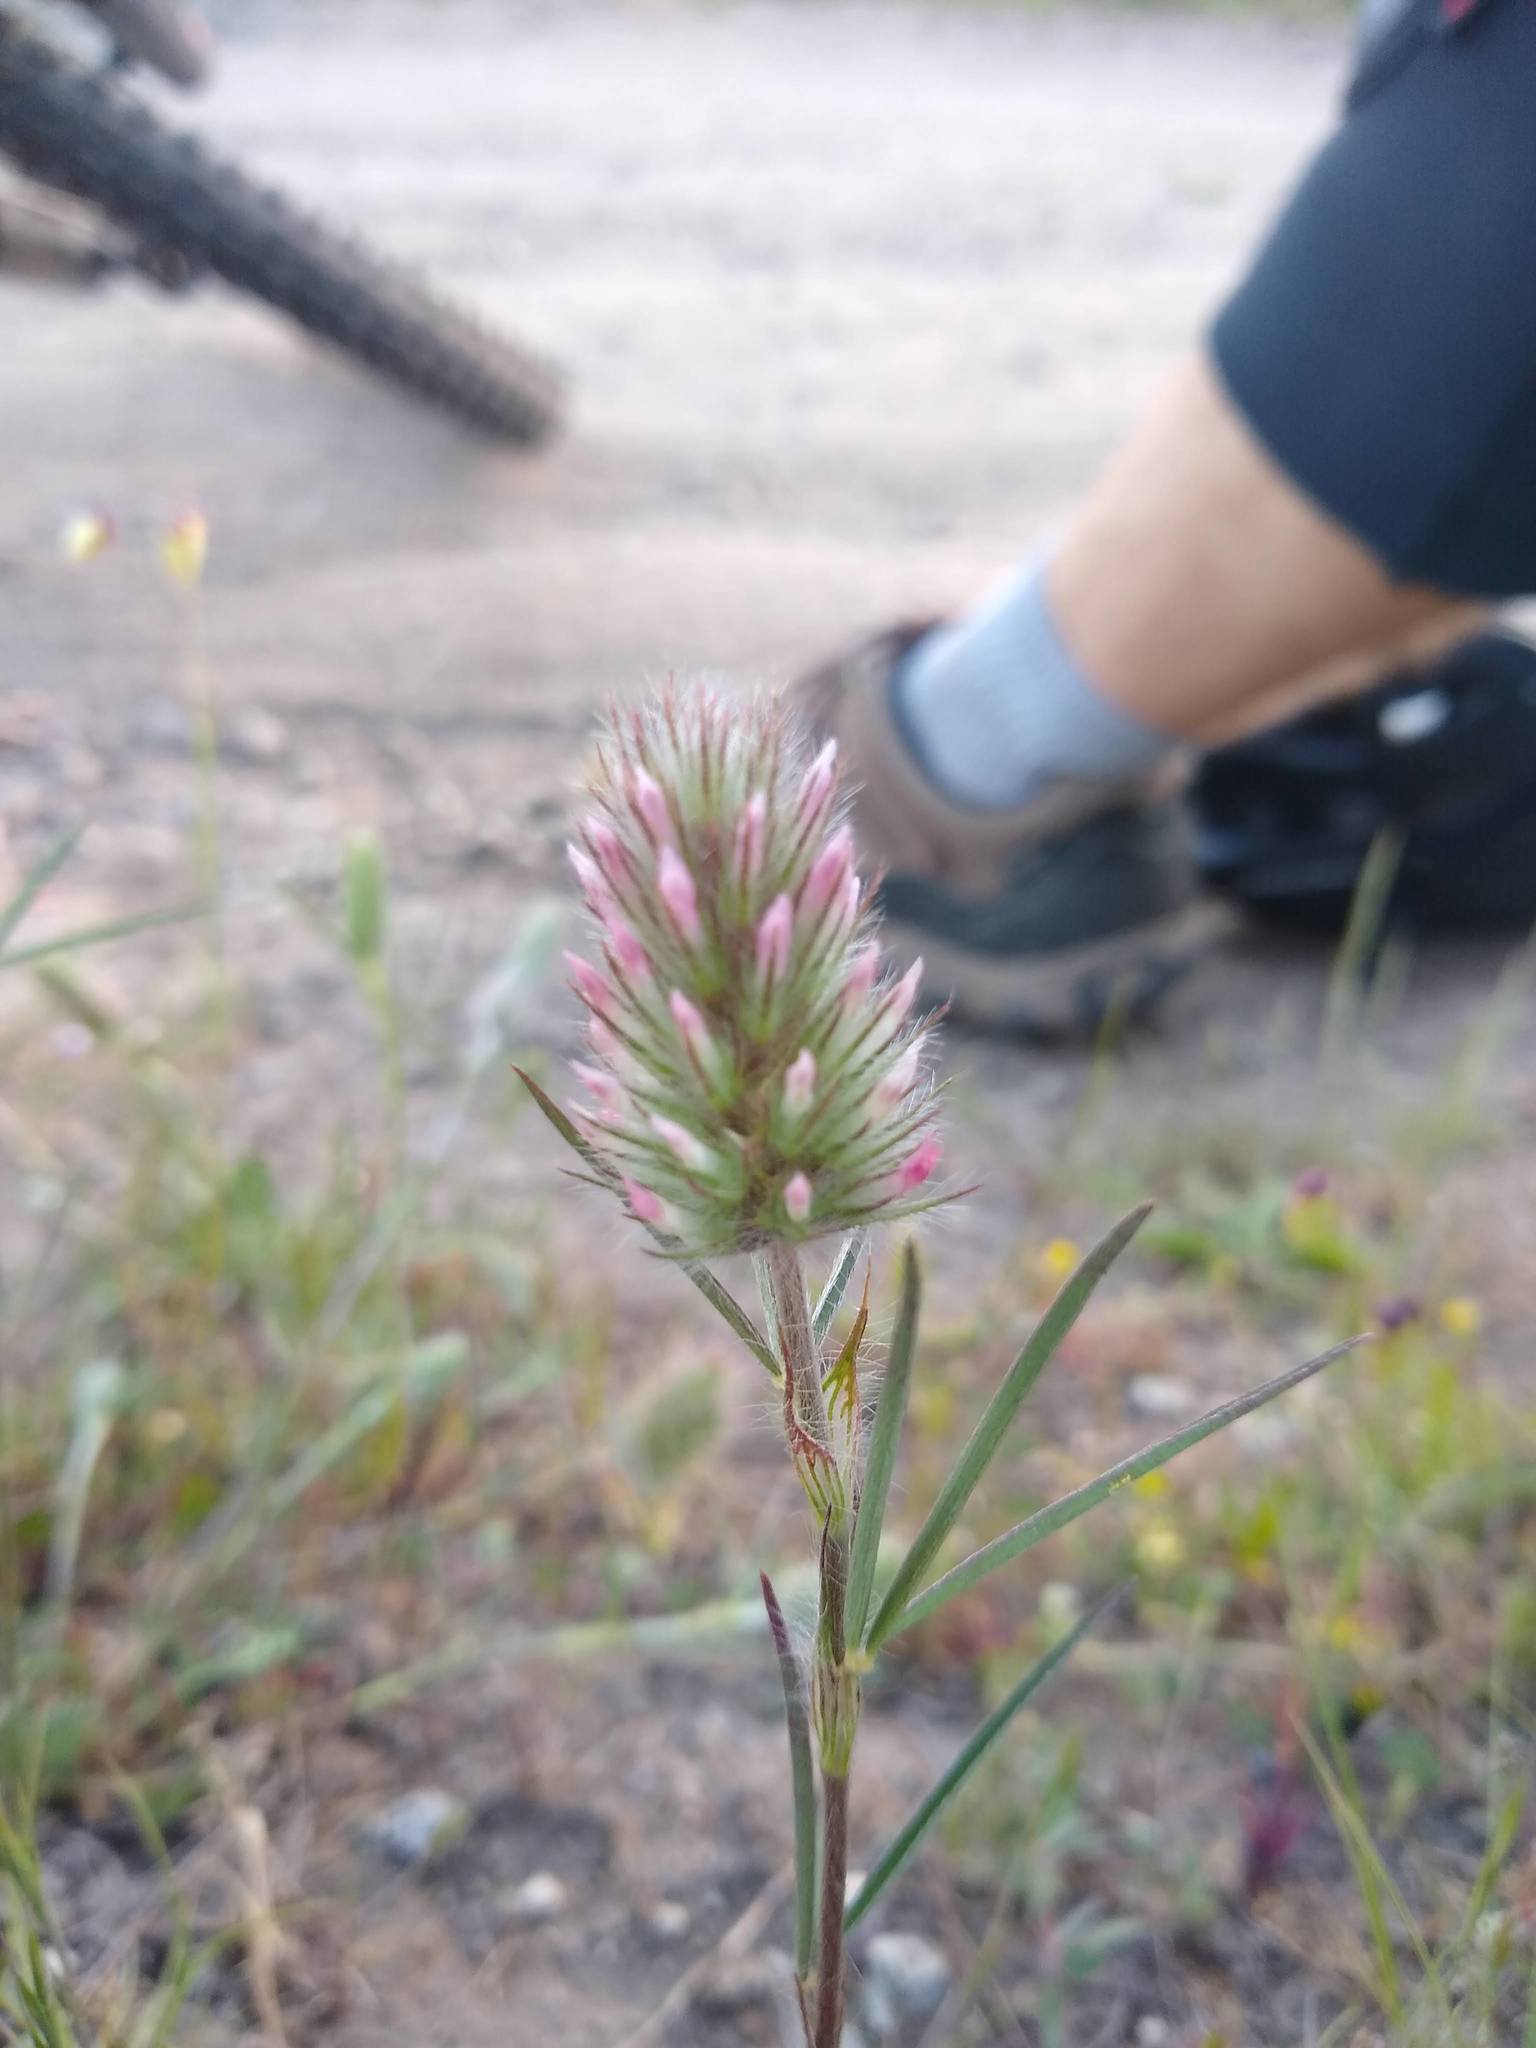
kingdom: Plantae
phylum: Tracheophyta
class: Magnoliopsida
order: Fabales
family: Fabaceae
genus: Trifolium
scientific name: Trifolium angustifolium
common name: Narrow clover
